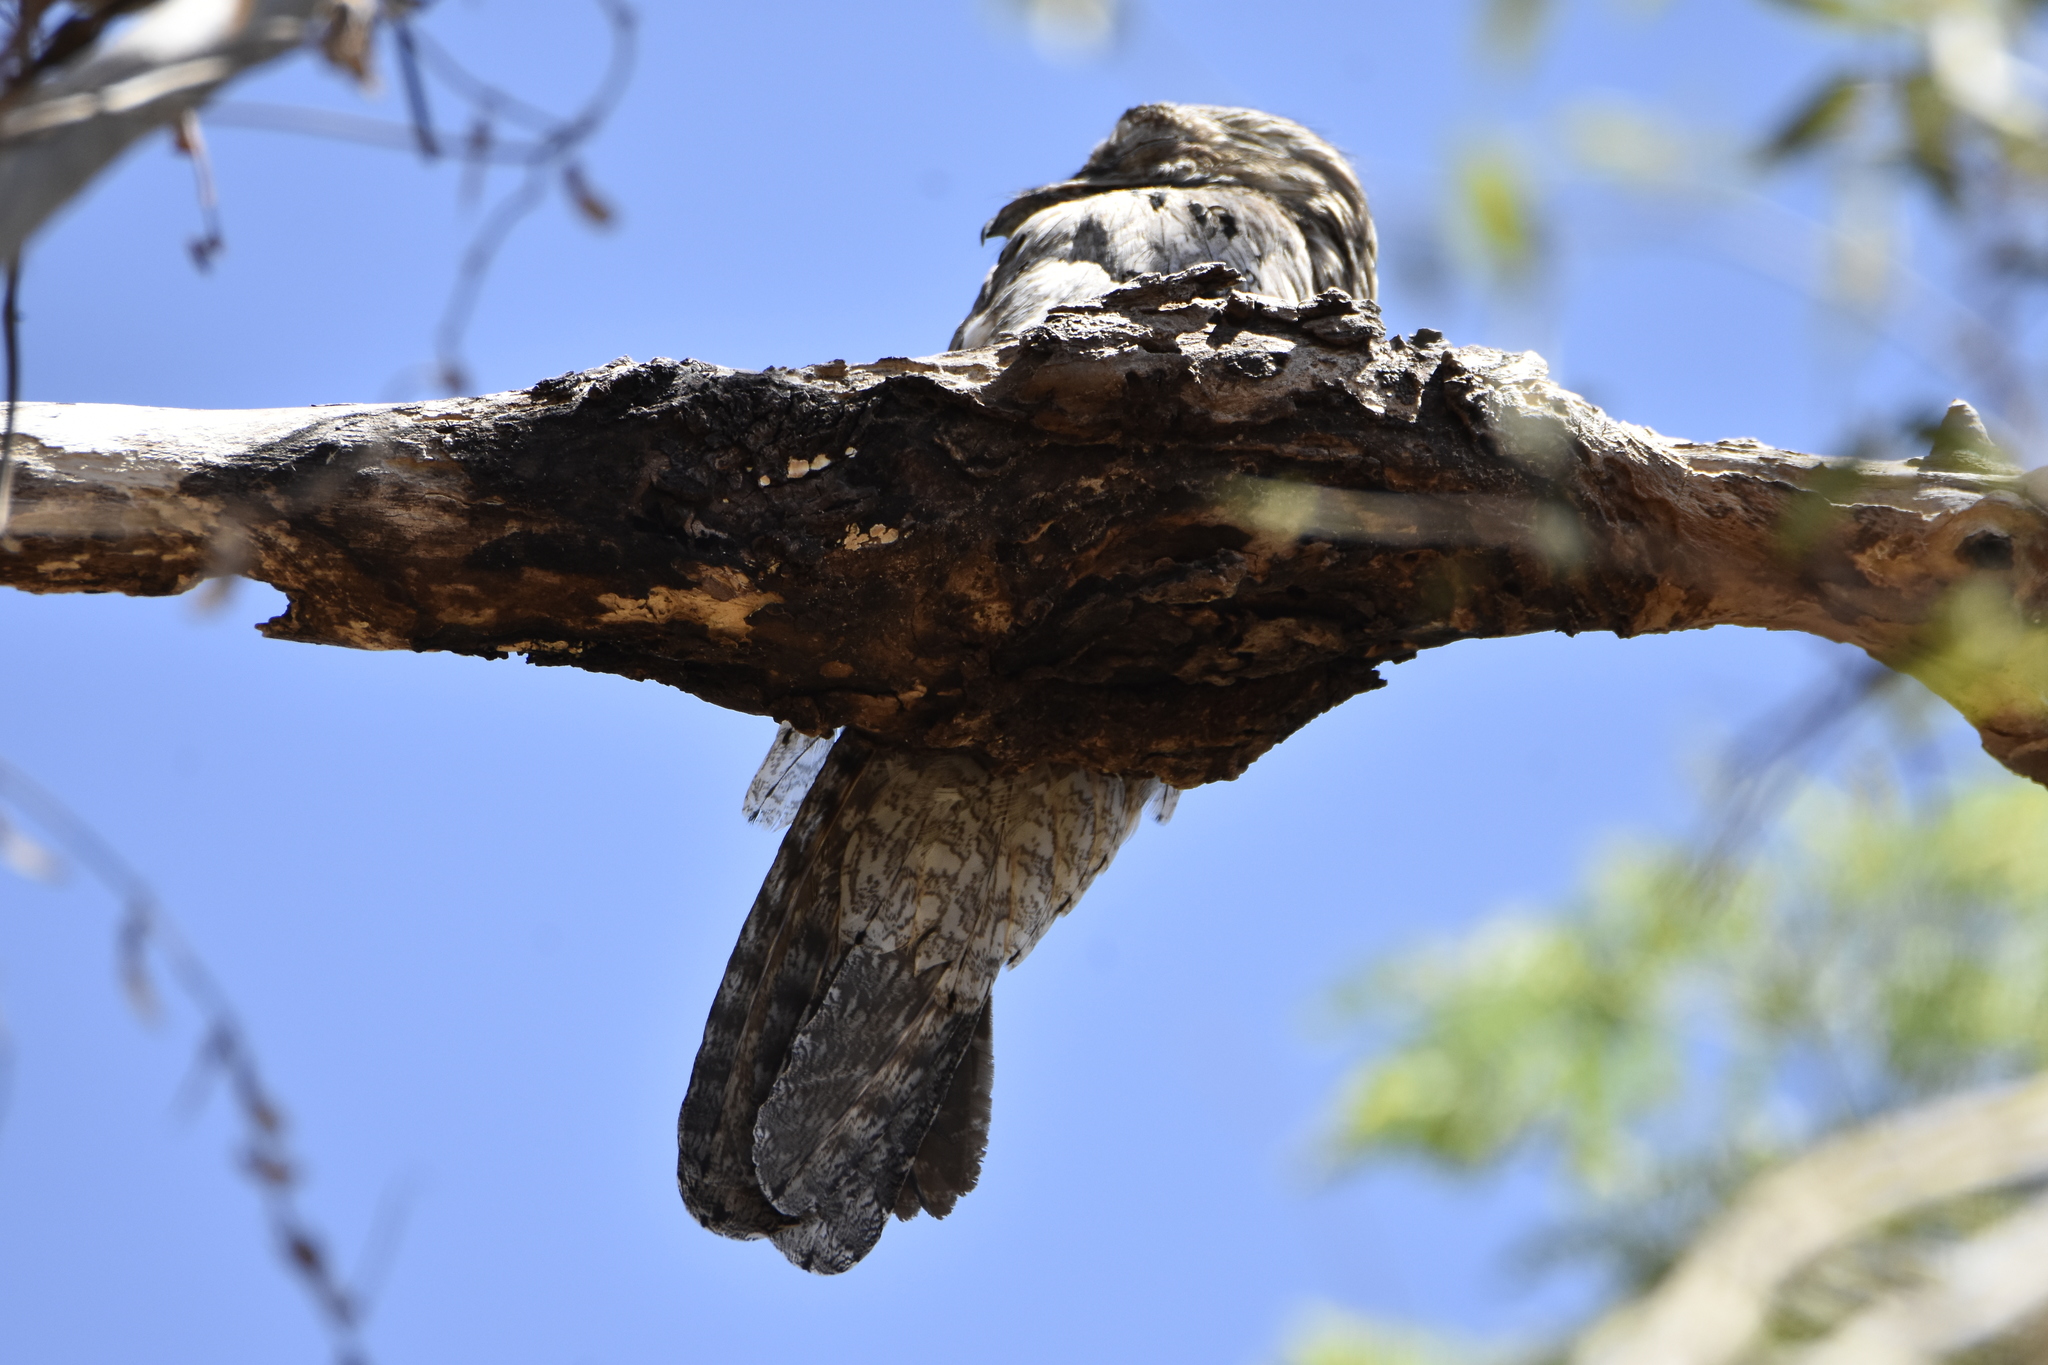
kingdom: Animalia
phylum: Chordata
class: Aves
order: Nyctibiiformes
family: Nyctibiidae
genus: Nyctibius
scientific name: Nyctibius jamaicensis
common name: Northern potoo
